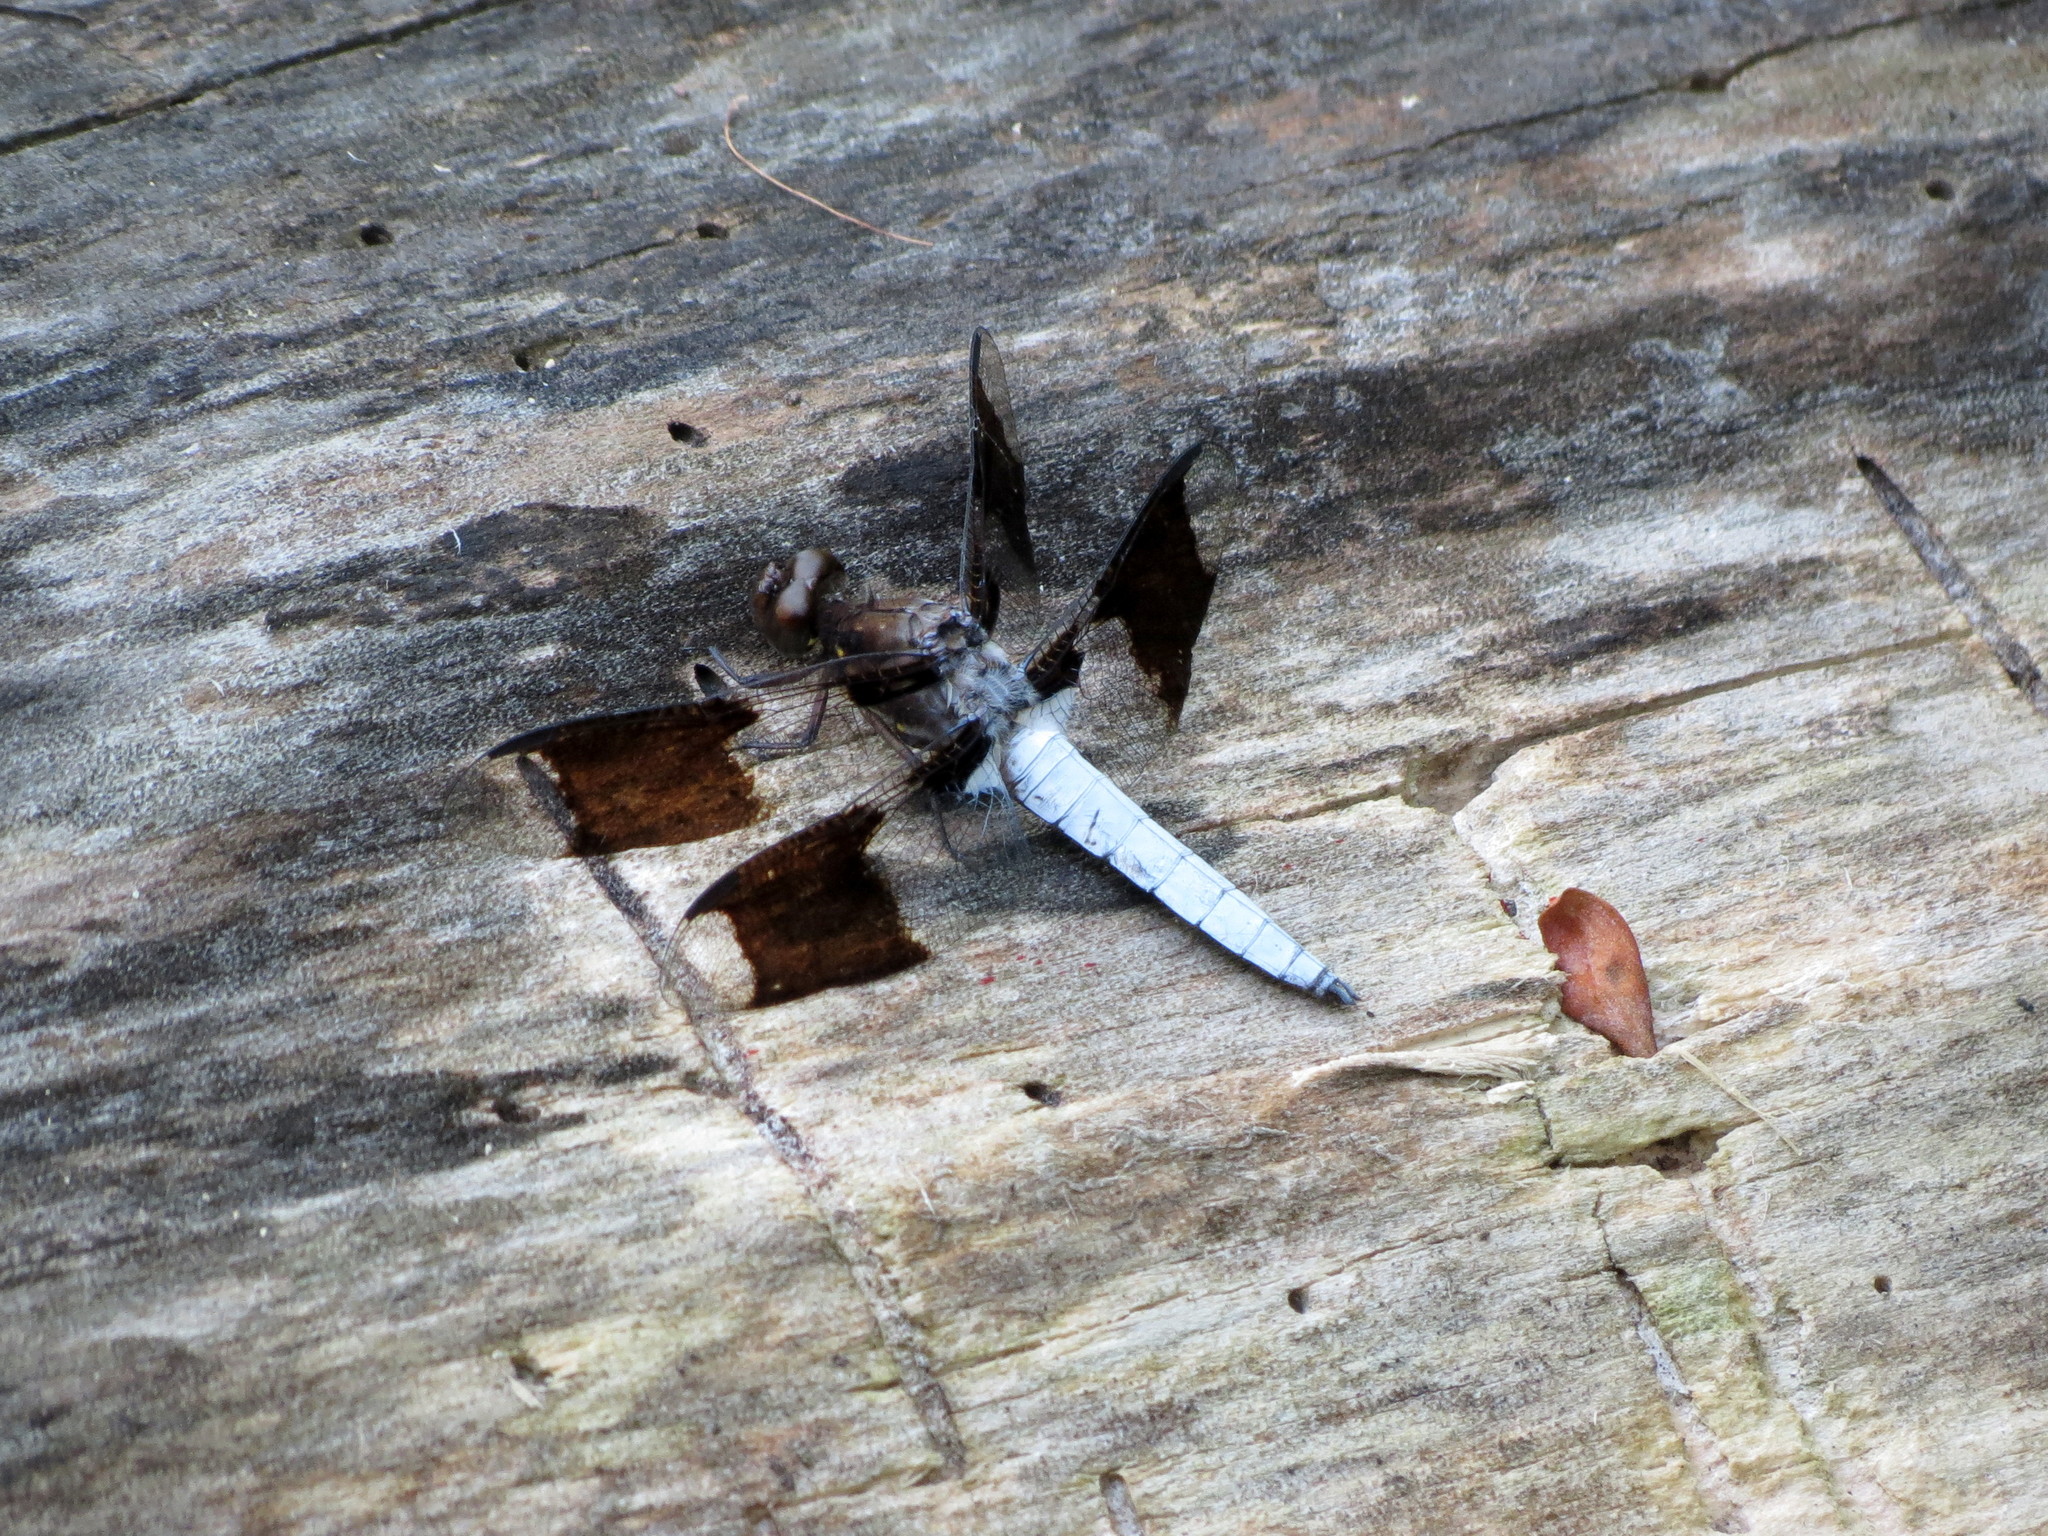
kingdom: Animalia
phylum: Arthropoda
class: Insecta
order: Odonata
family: Libellulidae
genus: Plathemis
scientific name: Plathemis lydia
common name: Common whitetail
